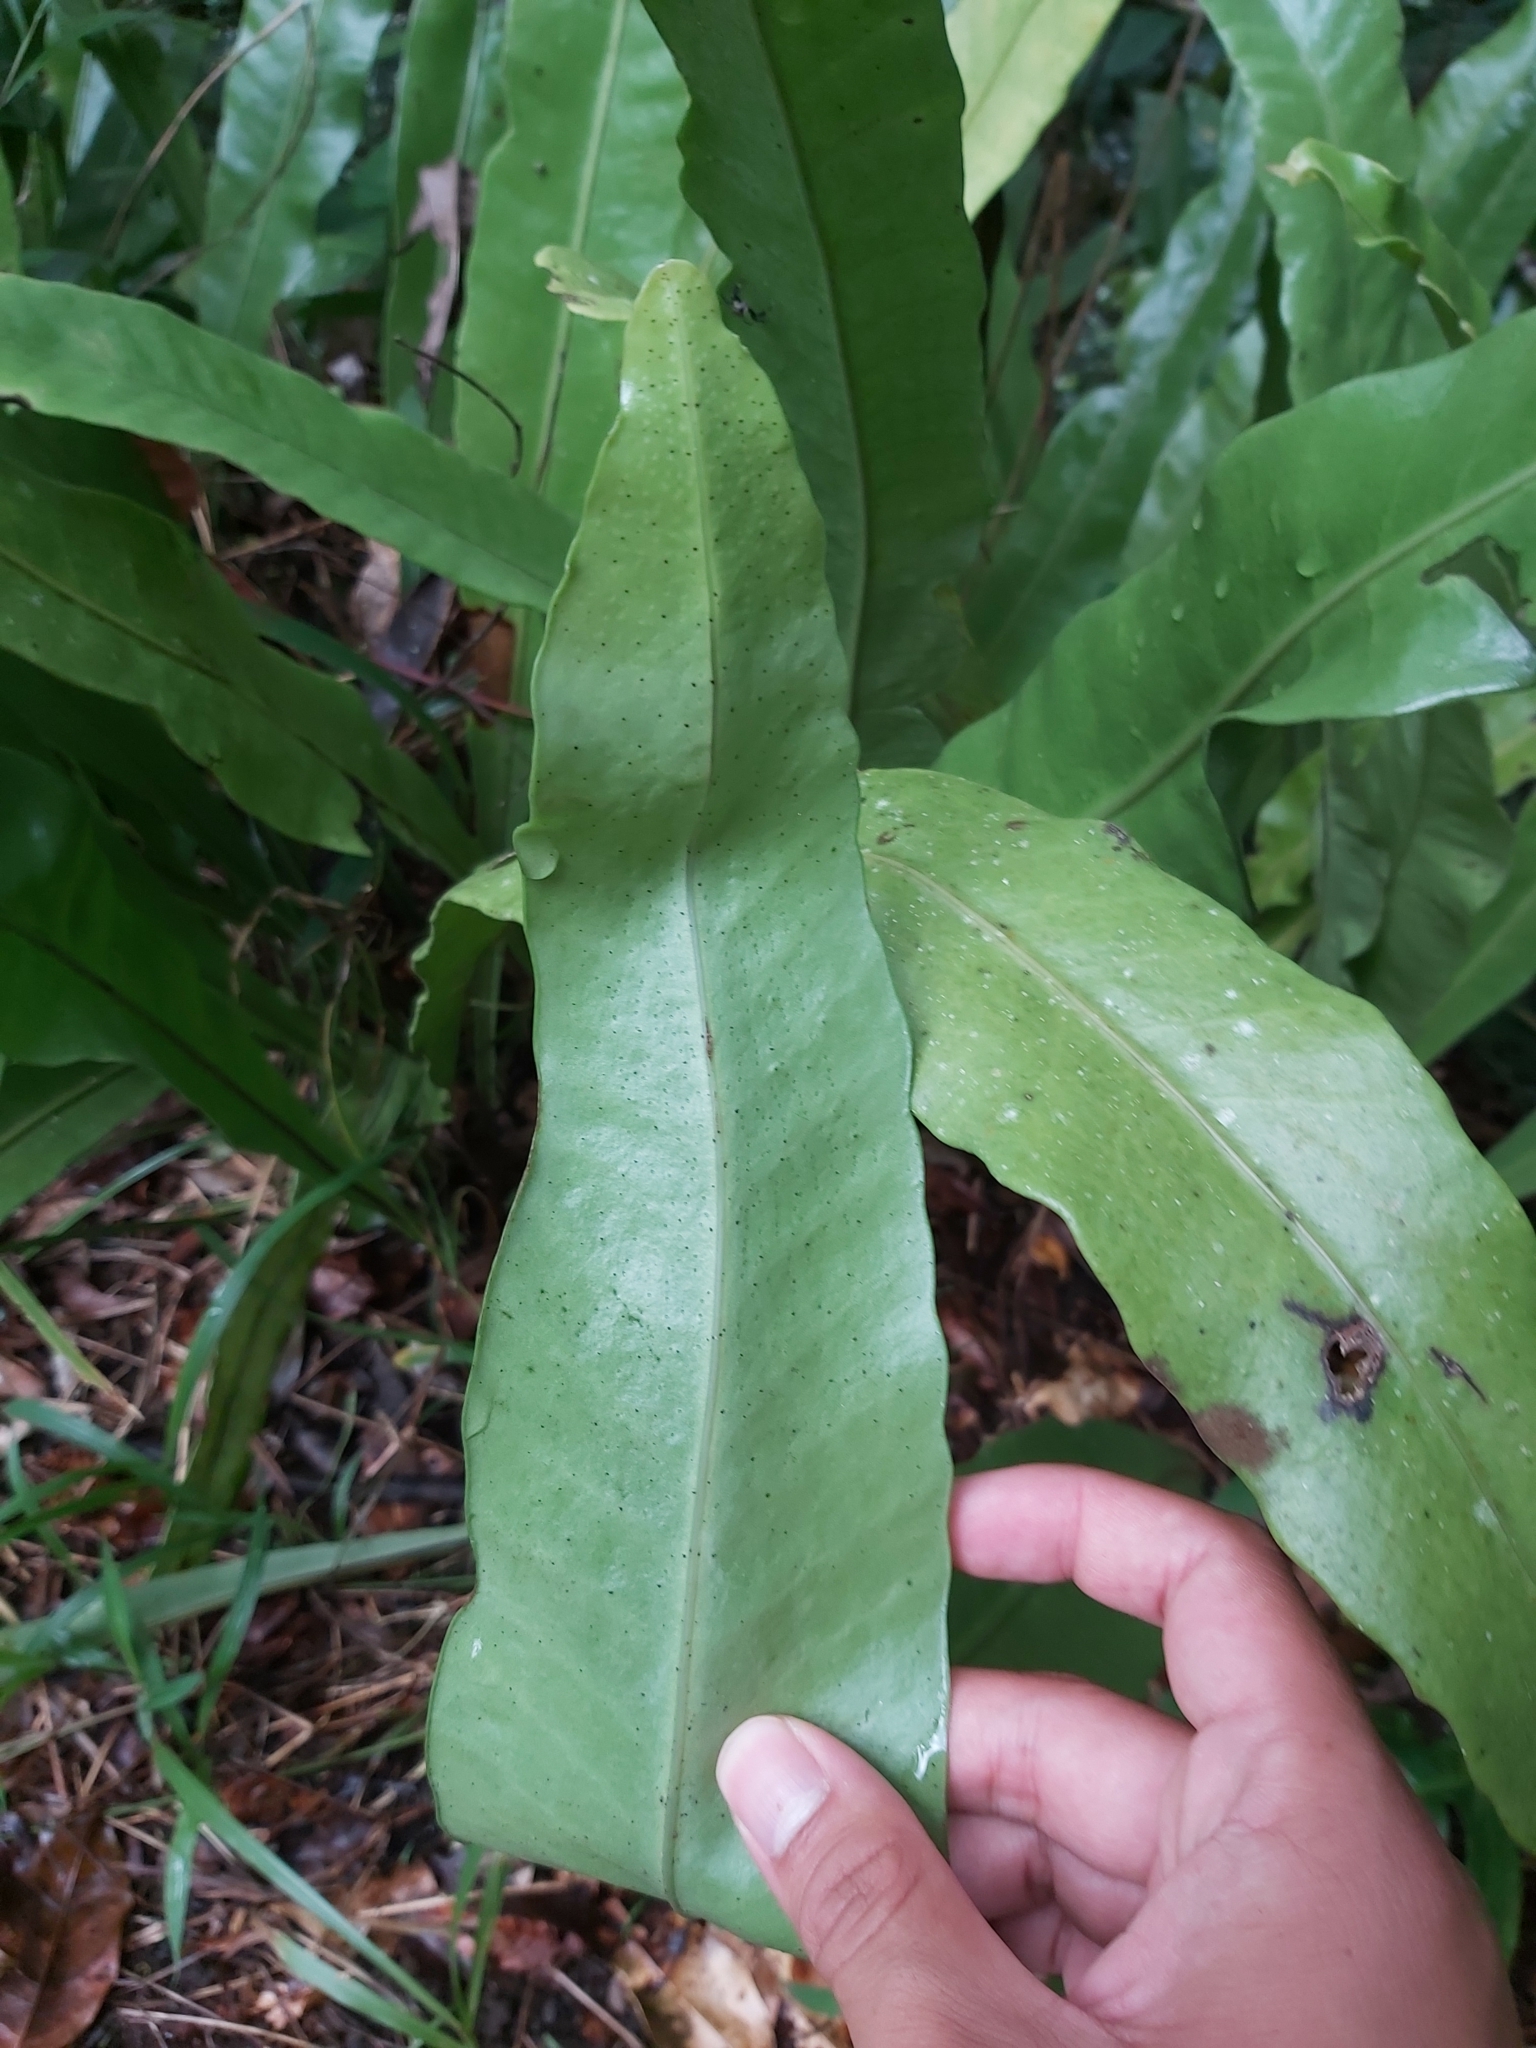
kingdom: Plantae
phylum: Tracheophyta
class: Polypodiopsida
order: Polypodiales
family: Polypodiaceae
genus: Microsorum
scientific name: Microsorum punctatum
